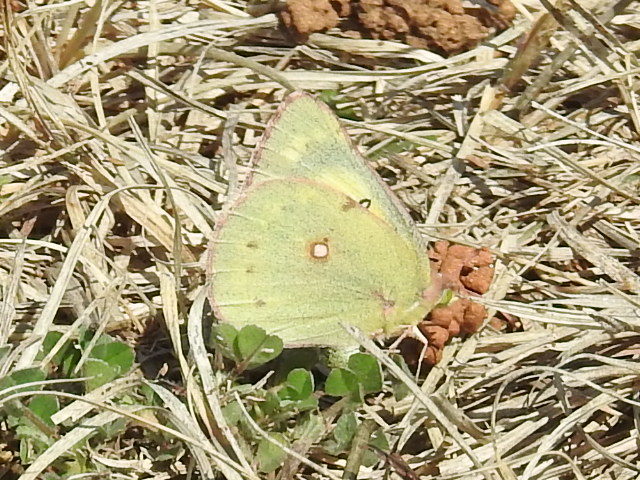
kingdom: Animalia
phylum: Arthropoda
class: Insecta
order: Lepidoptera
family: Pieridae
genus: Colias
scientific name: Colias eurytheme
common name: Alfalfa butterfly
